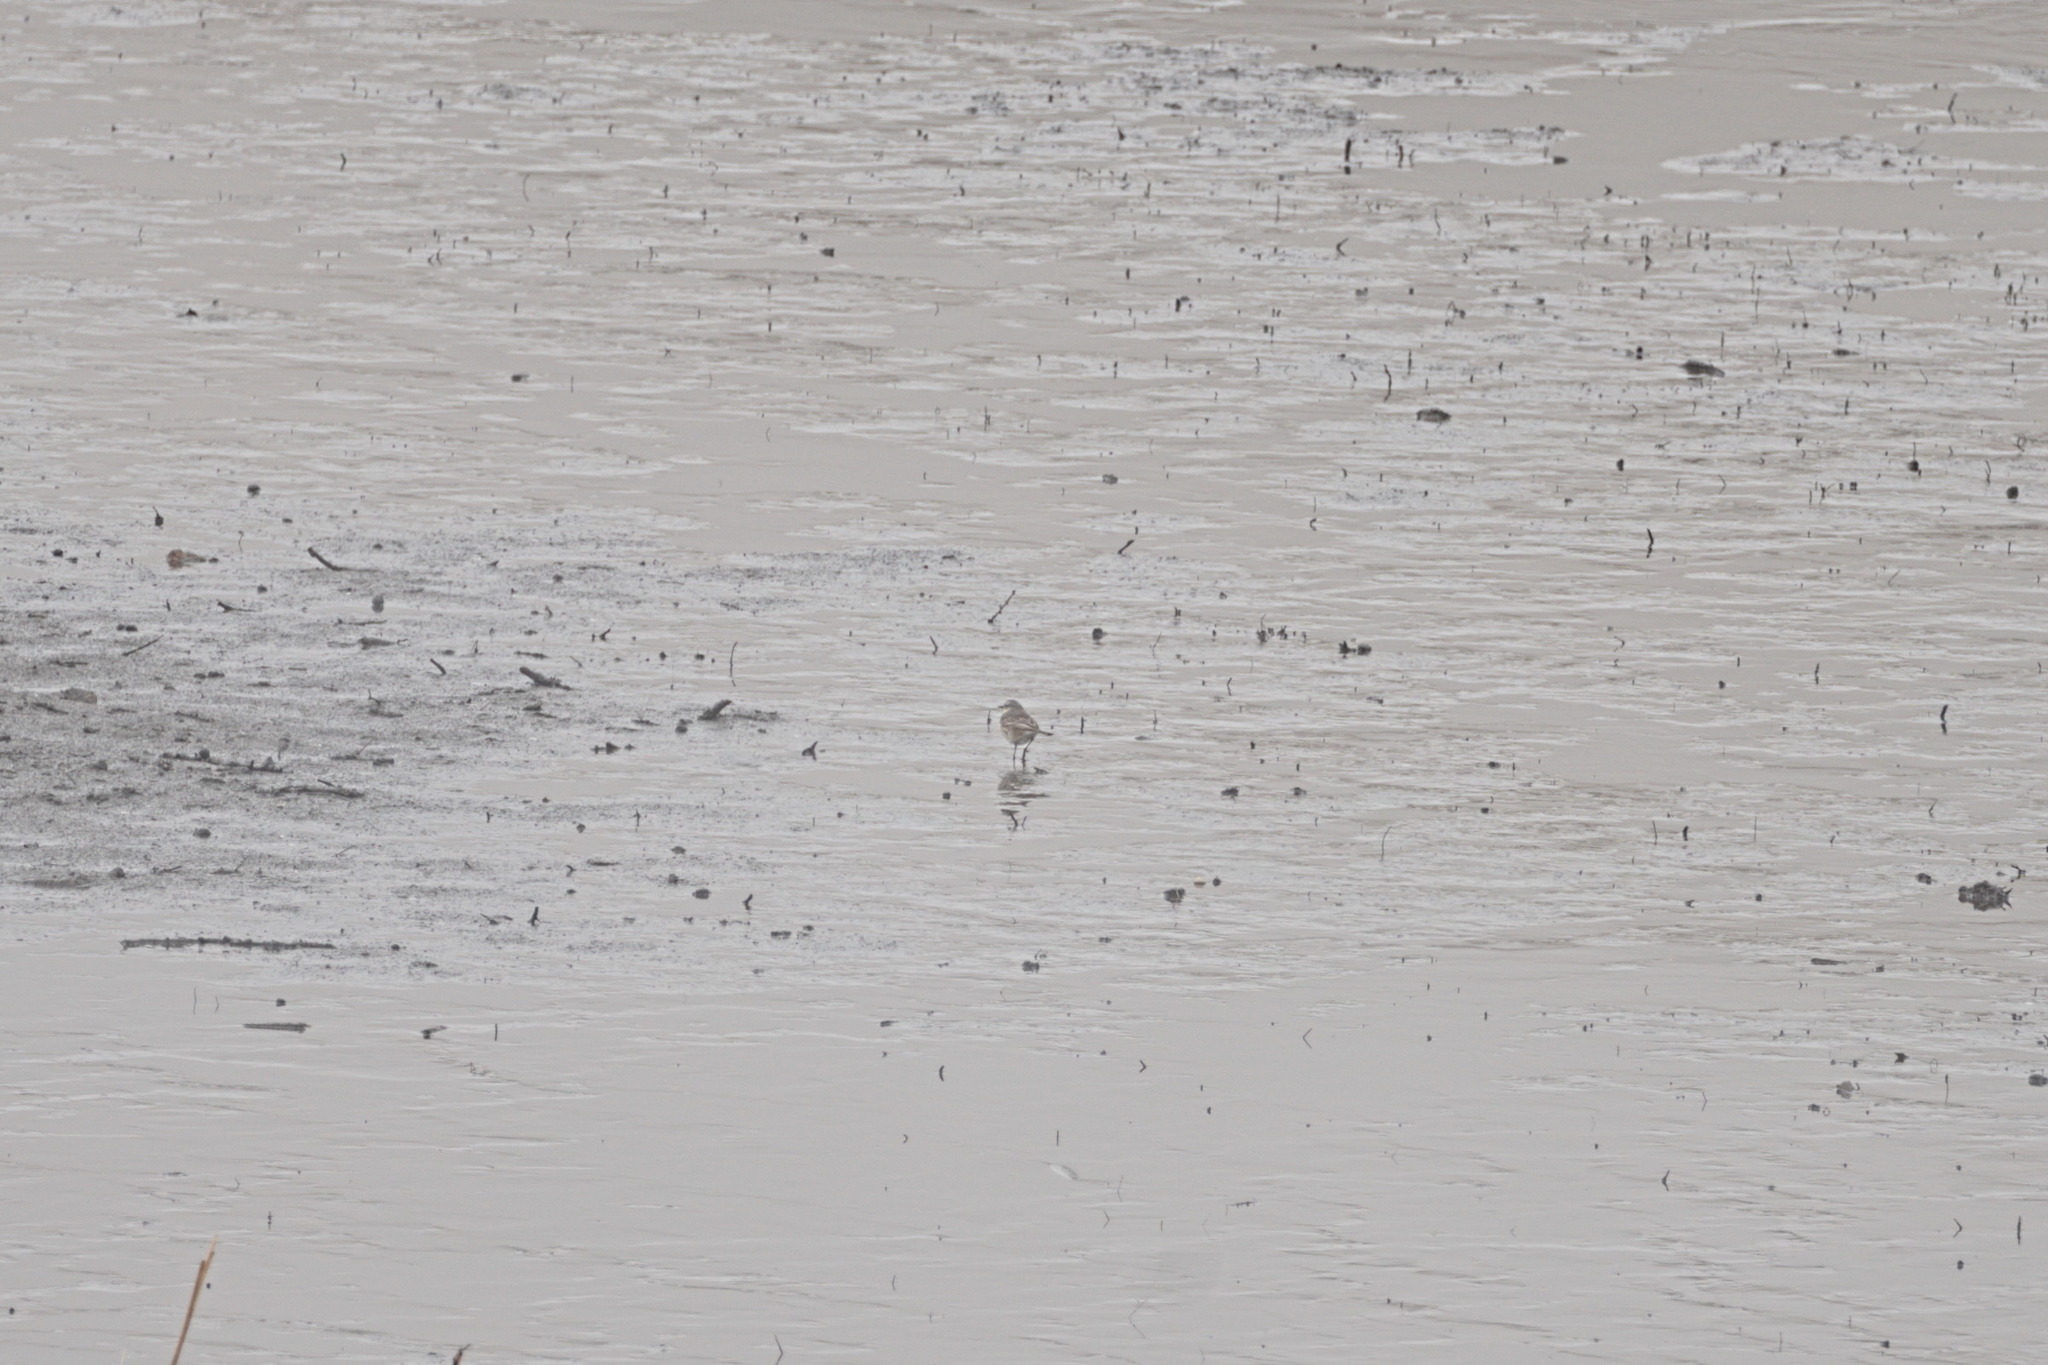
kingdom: Animalia
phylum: Chordata
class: Aves
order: Passeriformes
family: Motacillidae
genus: Anthus
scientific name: Anthus spinoletta
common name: Water pipit
